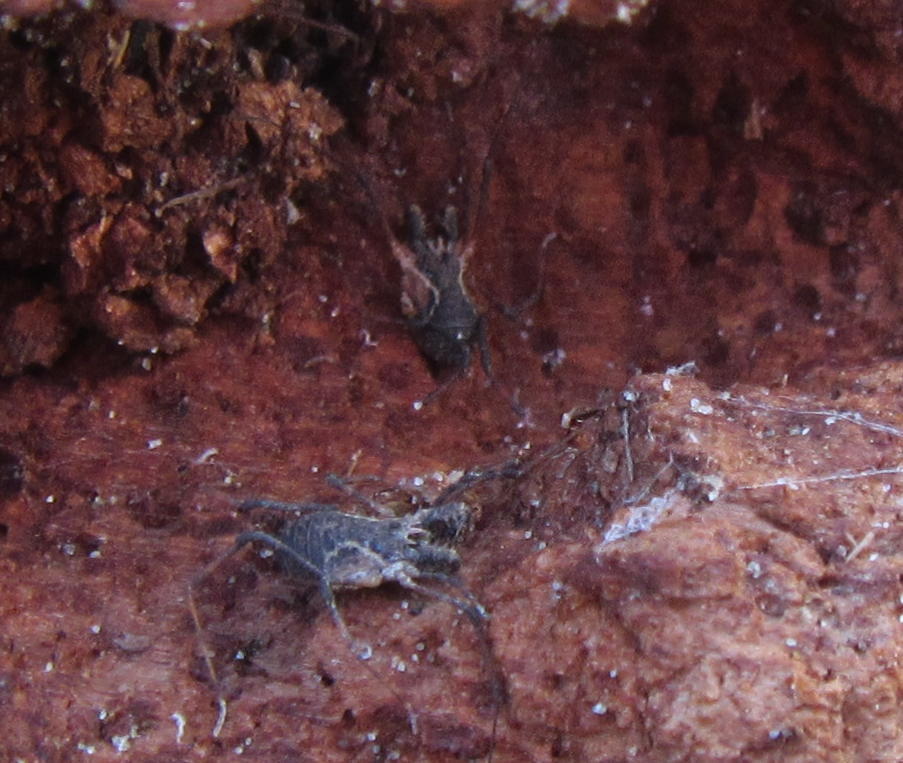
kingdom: Animalia
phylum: Arthropoda
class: Arachnida
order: Opiliones
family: Triaenonychidae
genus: Algidia
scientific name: Algidia chiltoni
